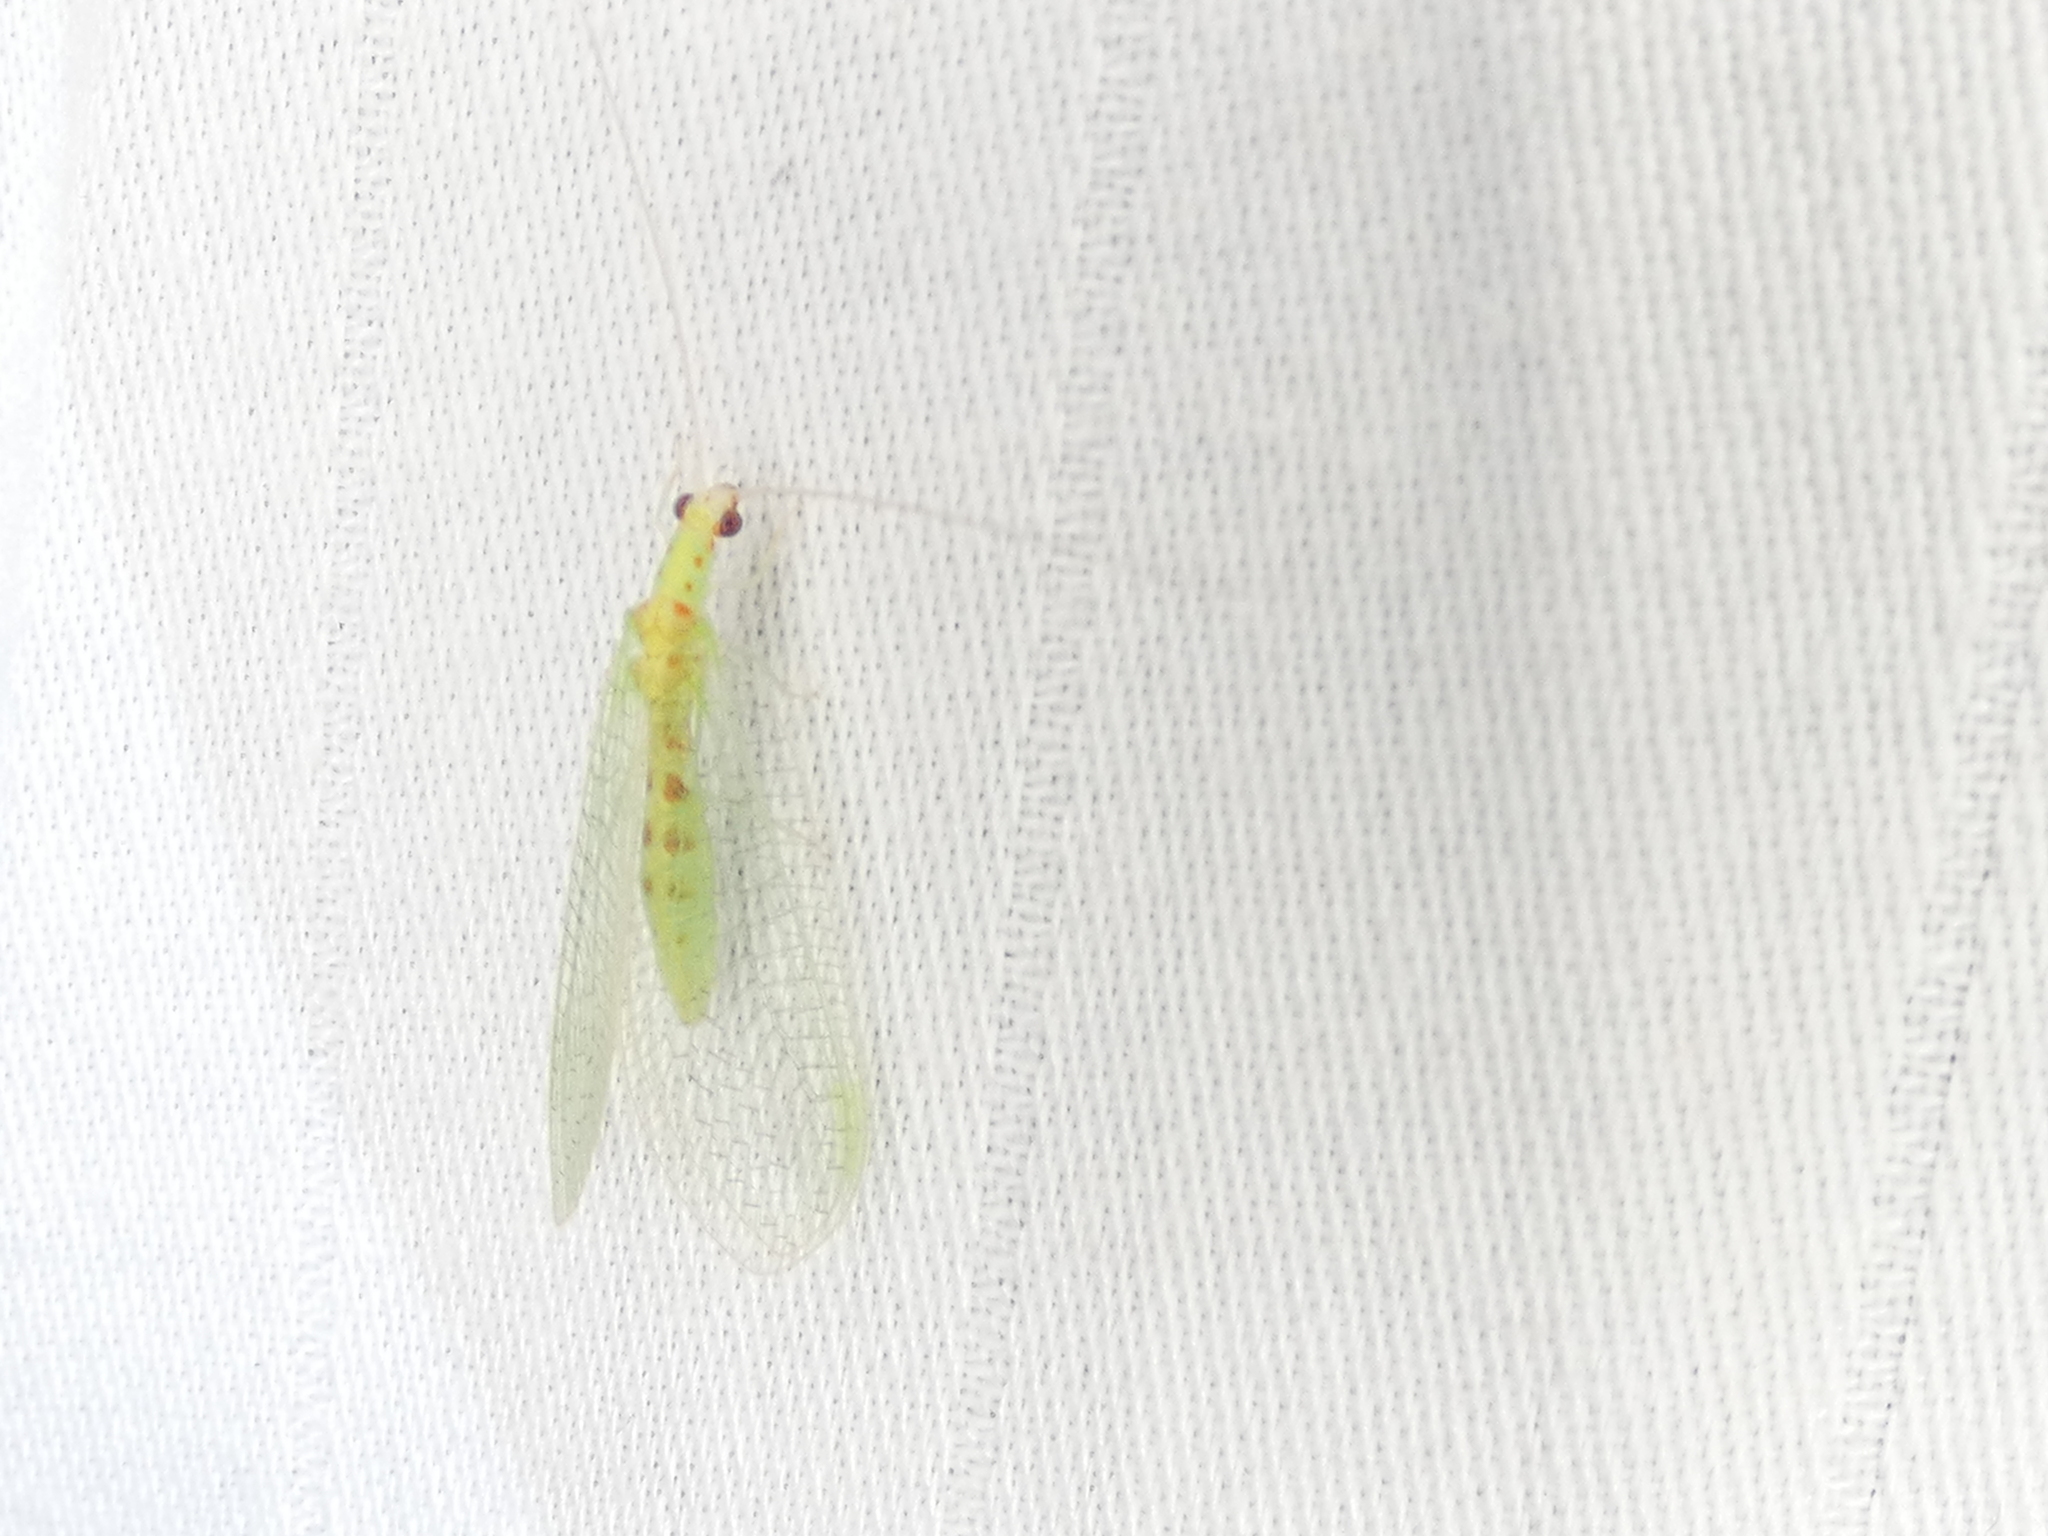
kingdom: Animalia
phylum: Arthropoda
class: Insecta
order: Neuroptera
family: Chrysopidae
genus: Chrysopa
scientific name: Chrysopa quadripunctata
